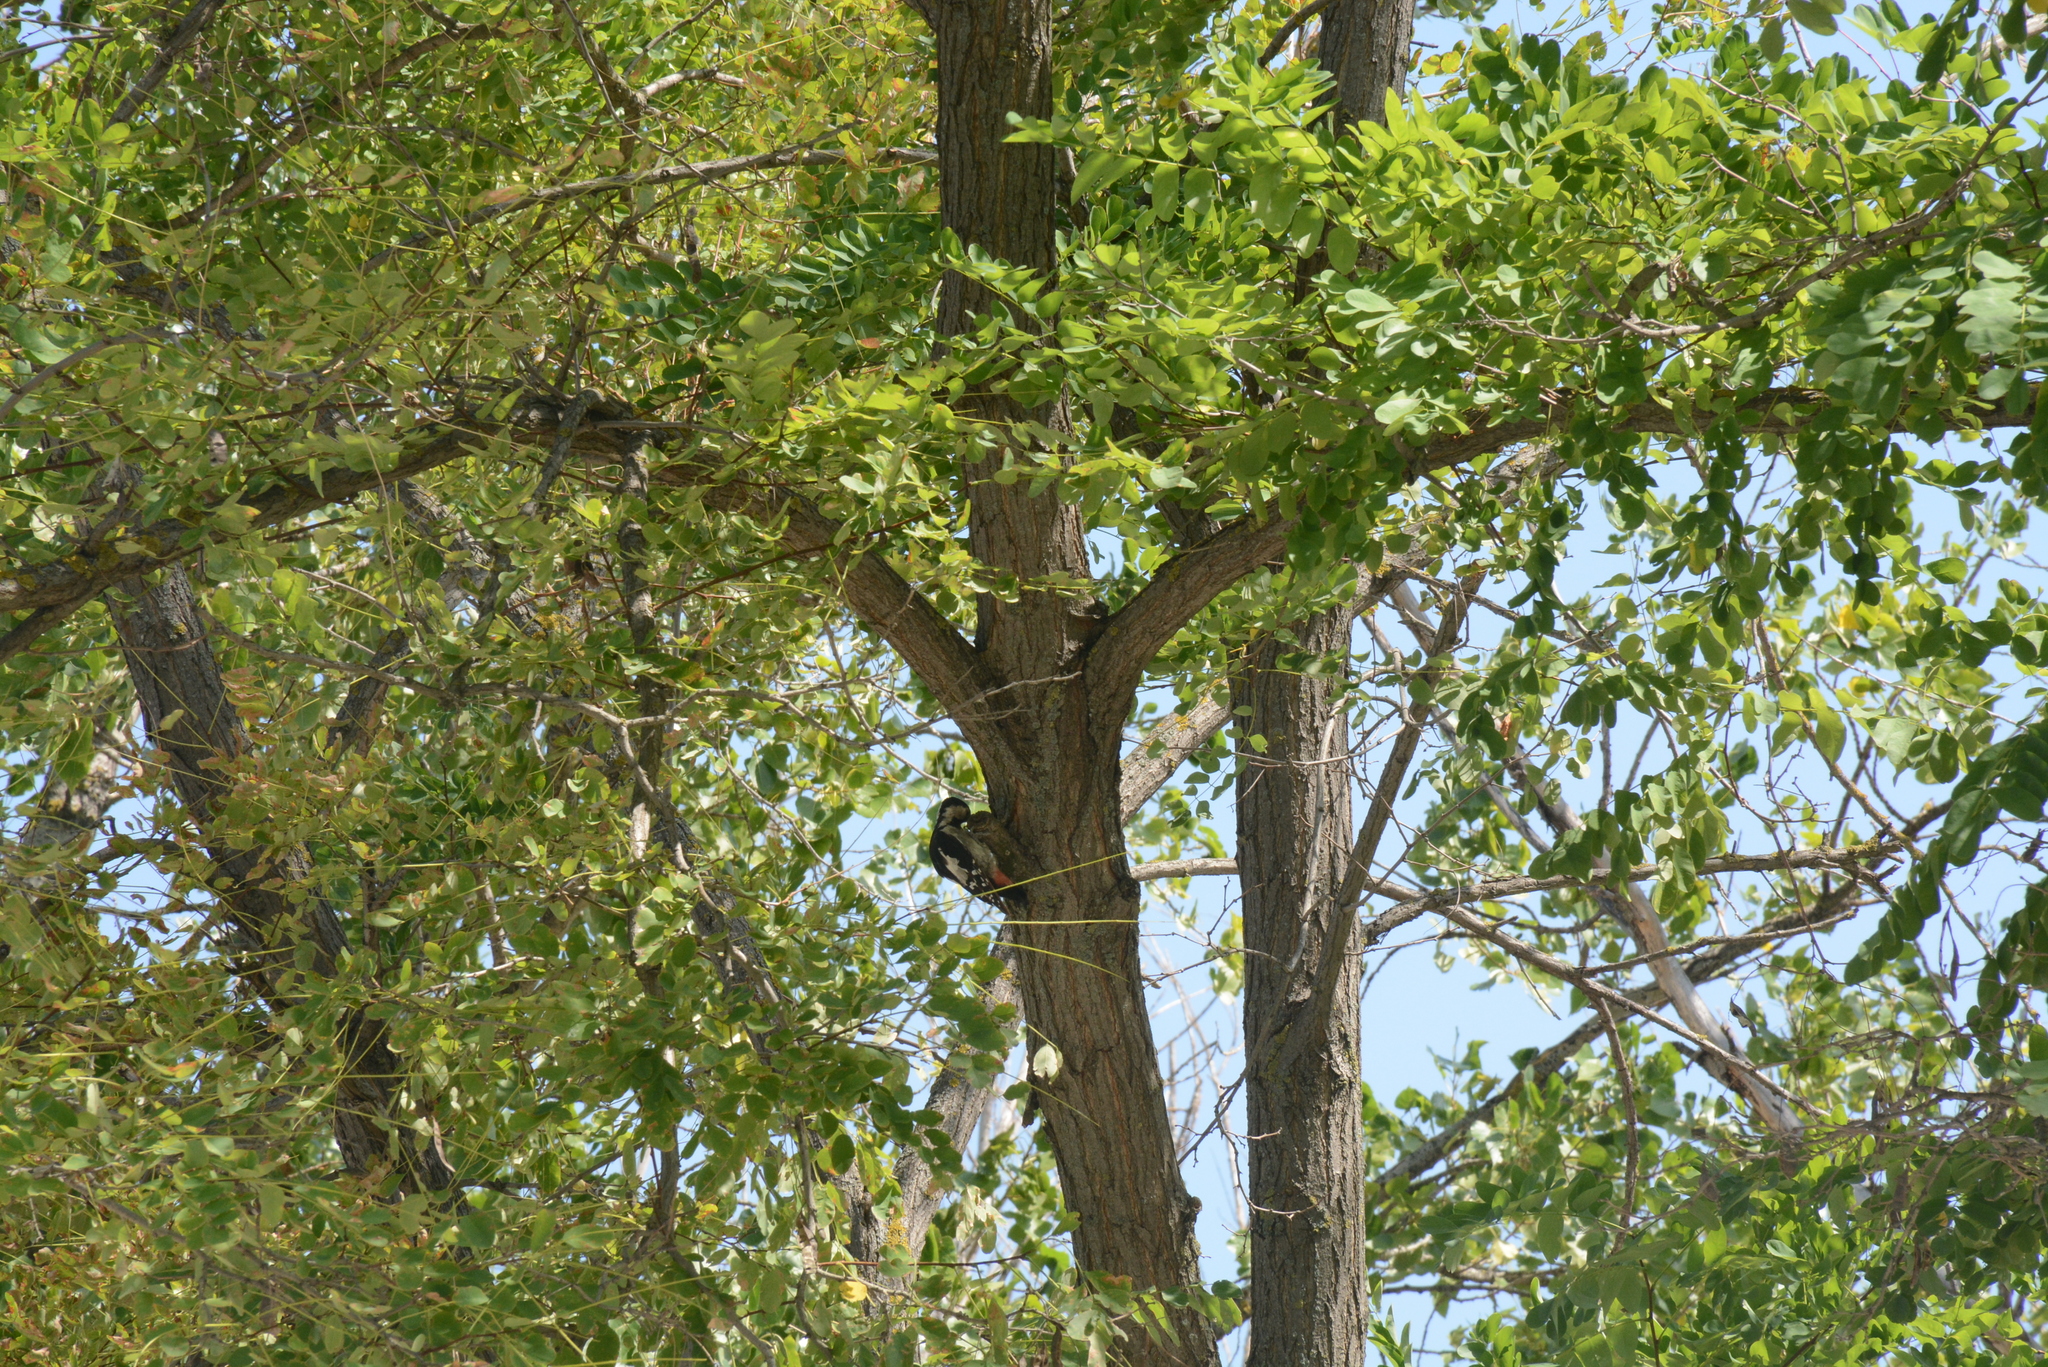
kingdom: Animalia
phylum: Chordata
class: Aves
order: Piciformes
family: Picidae
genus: Dendrocopos
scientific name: Dendrocopos syriacus
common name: Syrian woodpecker
